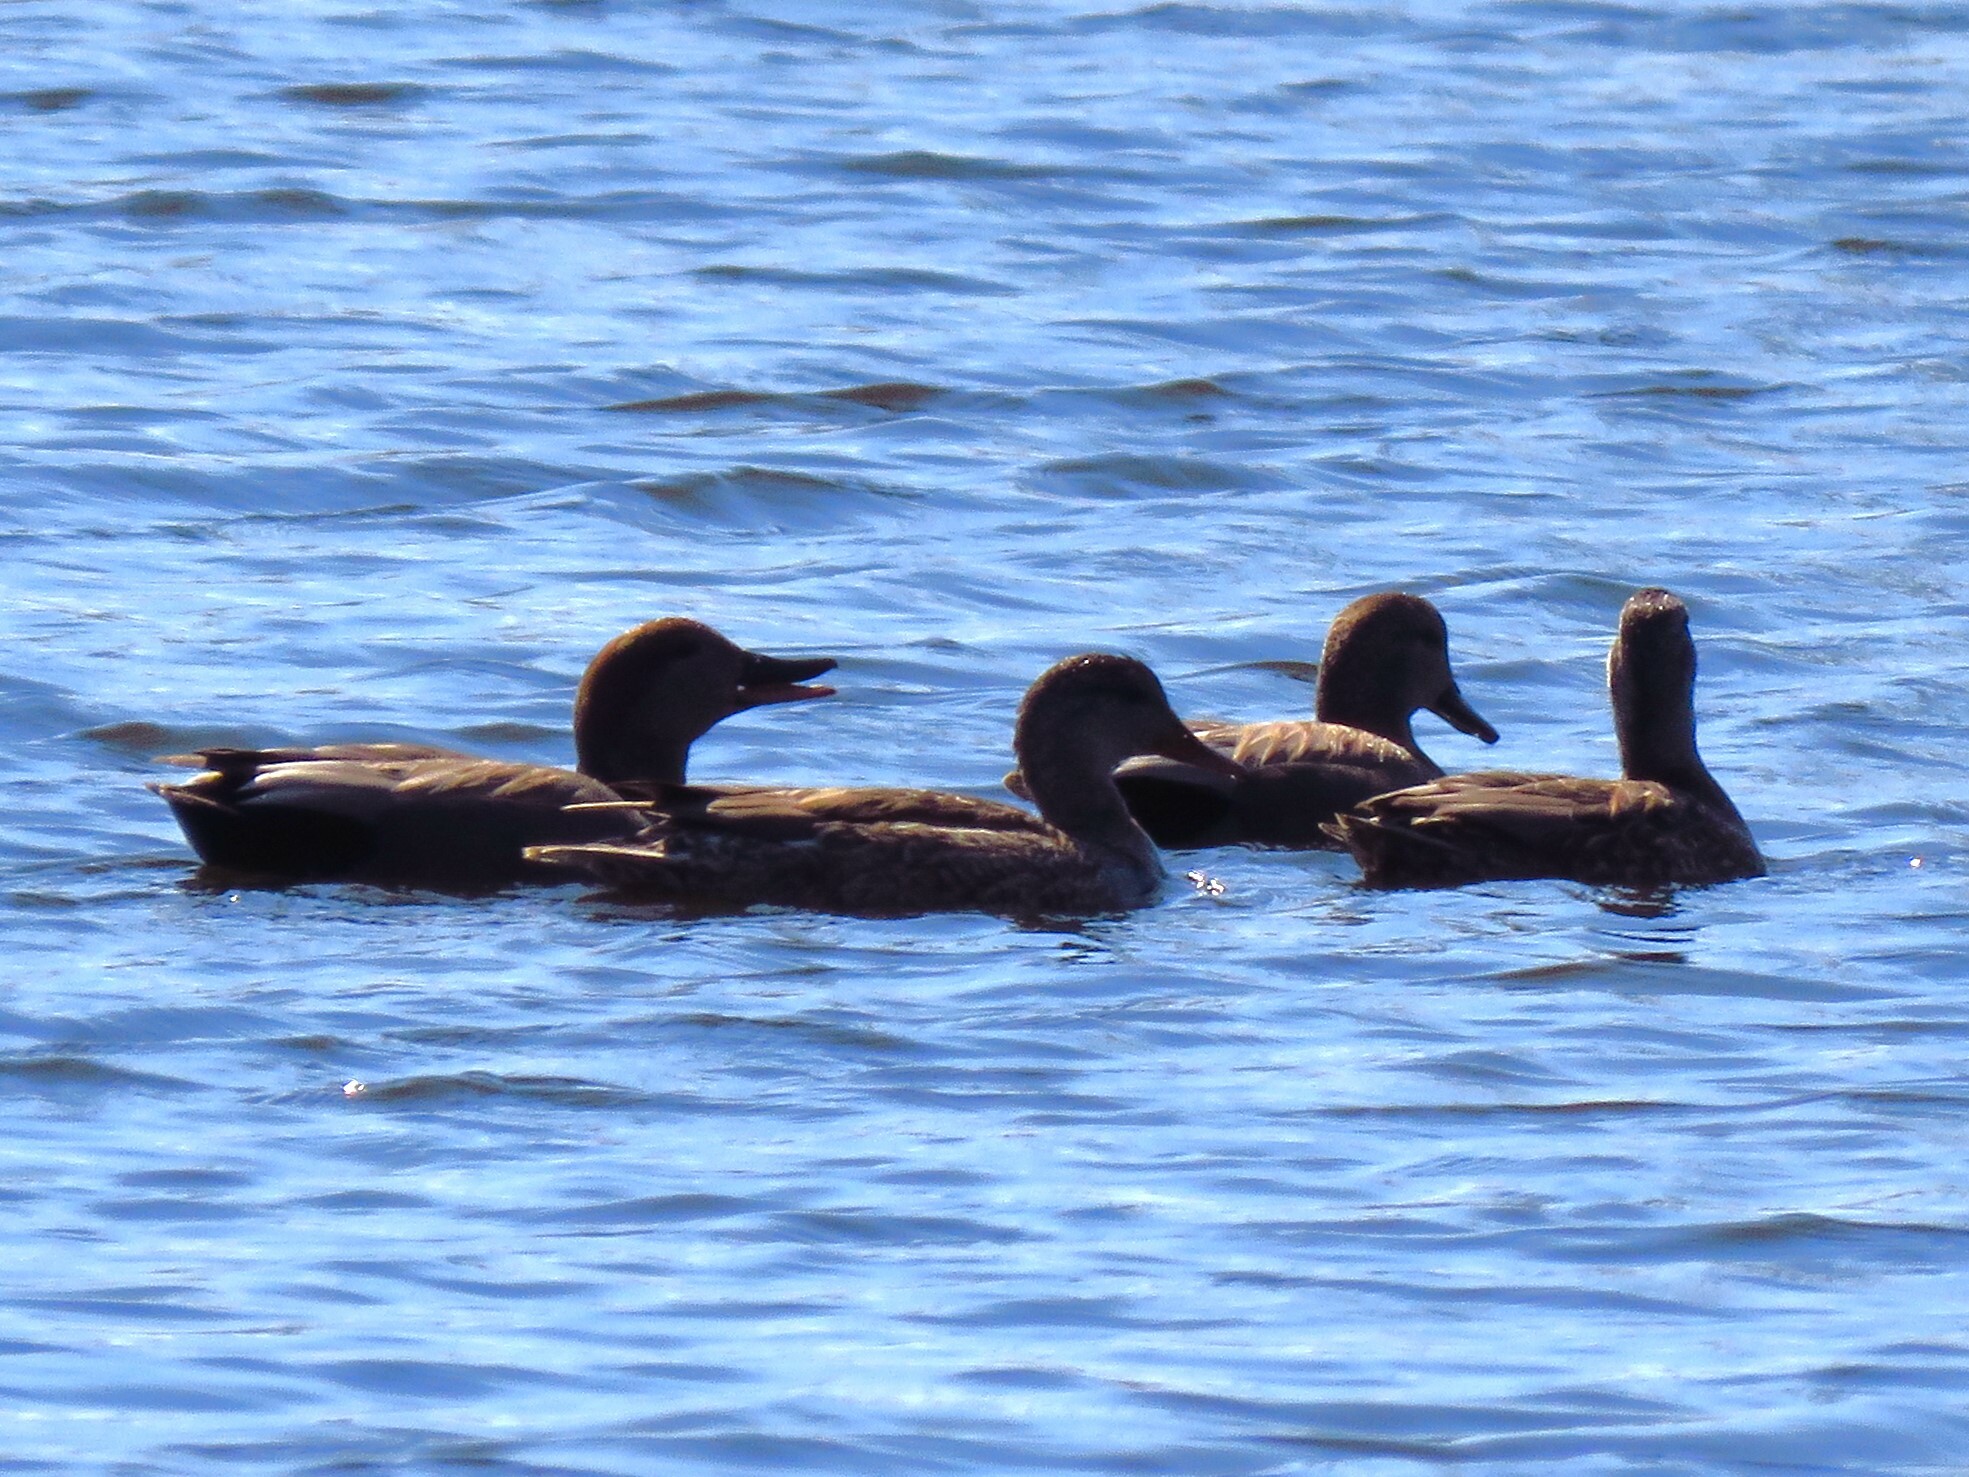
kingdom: Animalia
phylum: Chordata
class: Aves
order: Anseriformes
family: Anatidae
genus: Mareca
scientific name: Mareca strepera
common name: Gadwall
